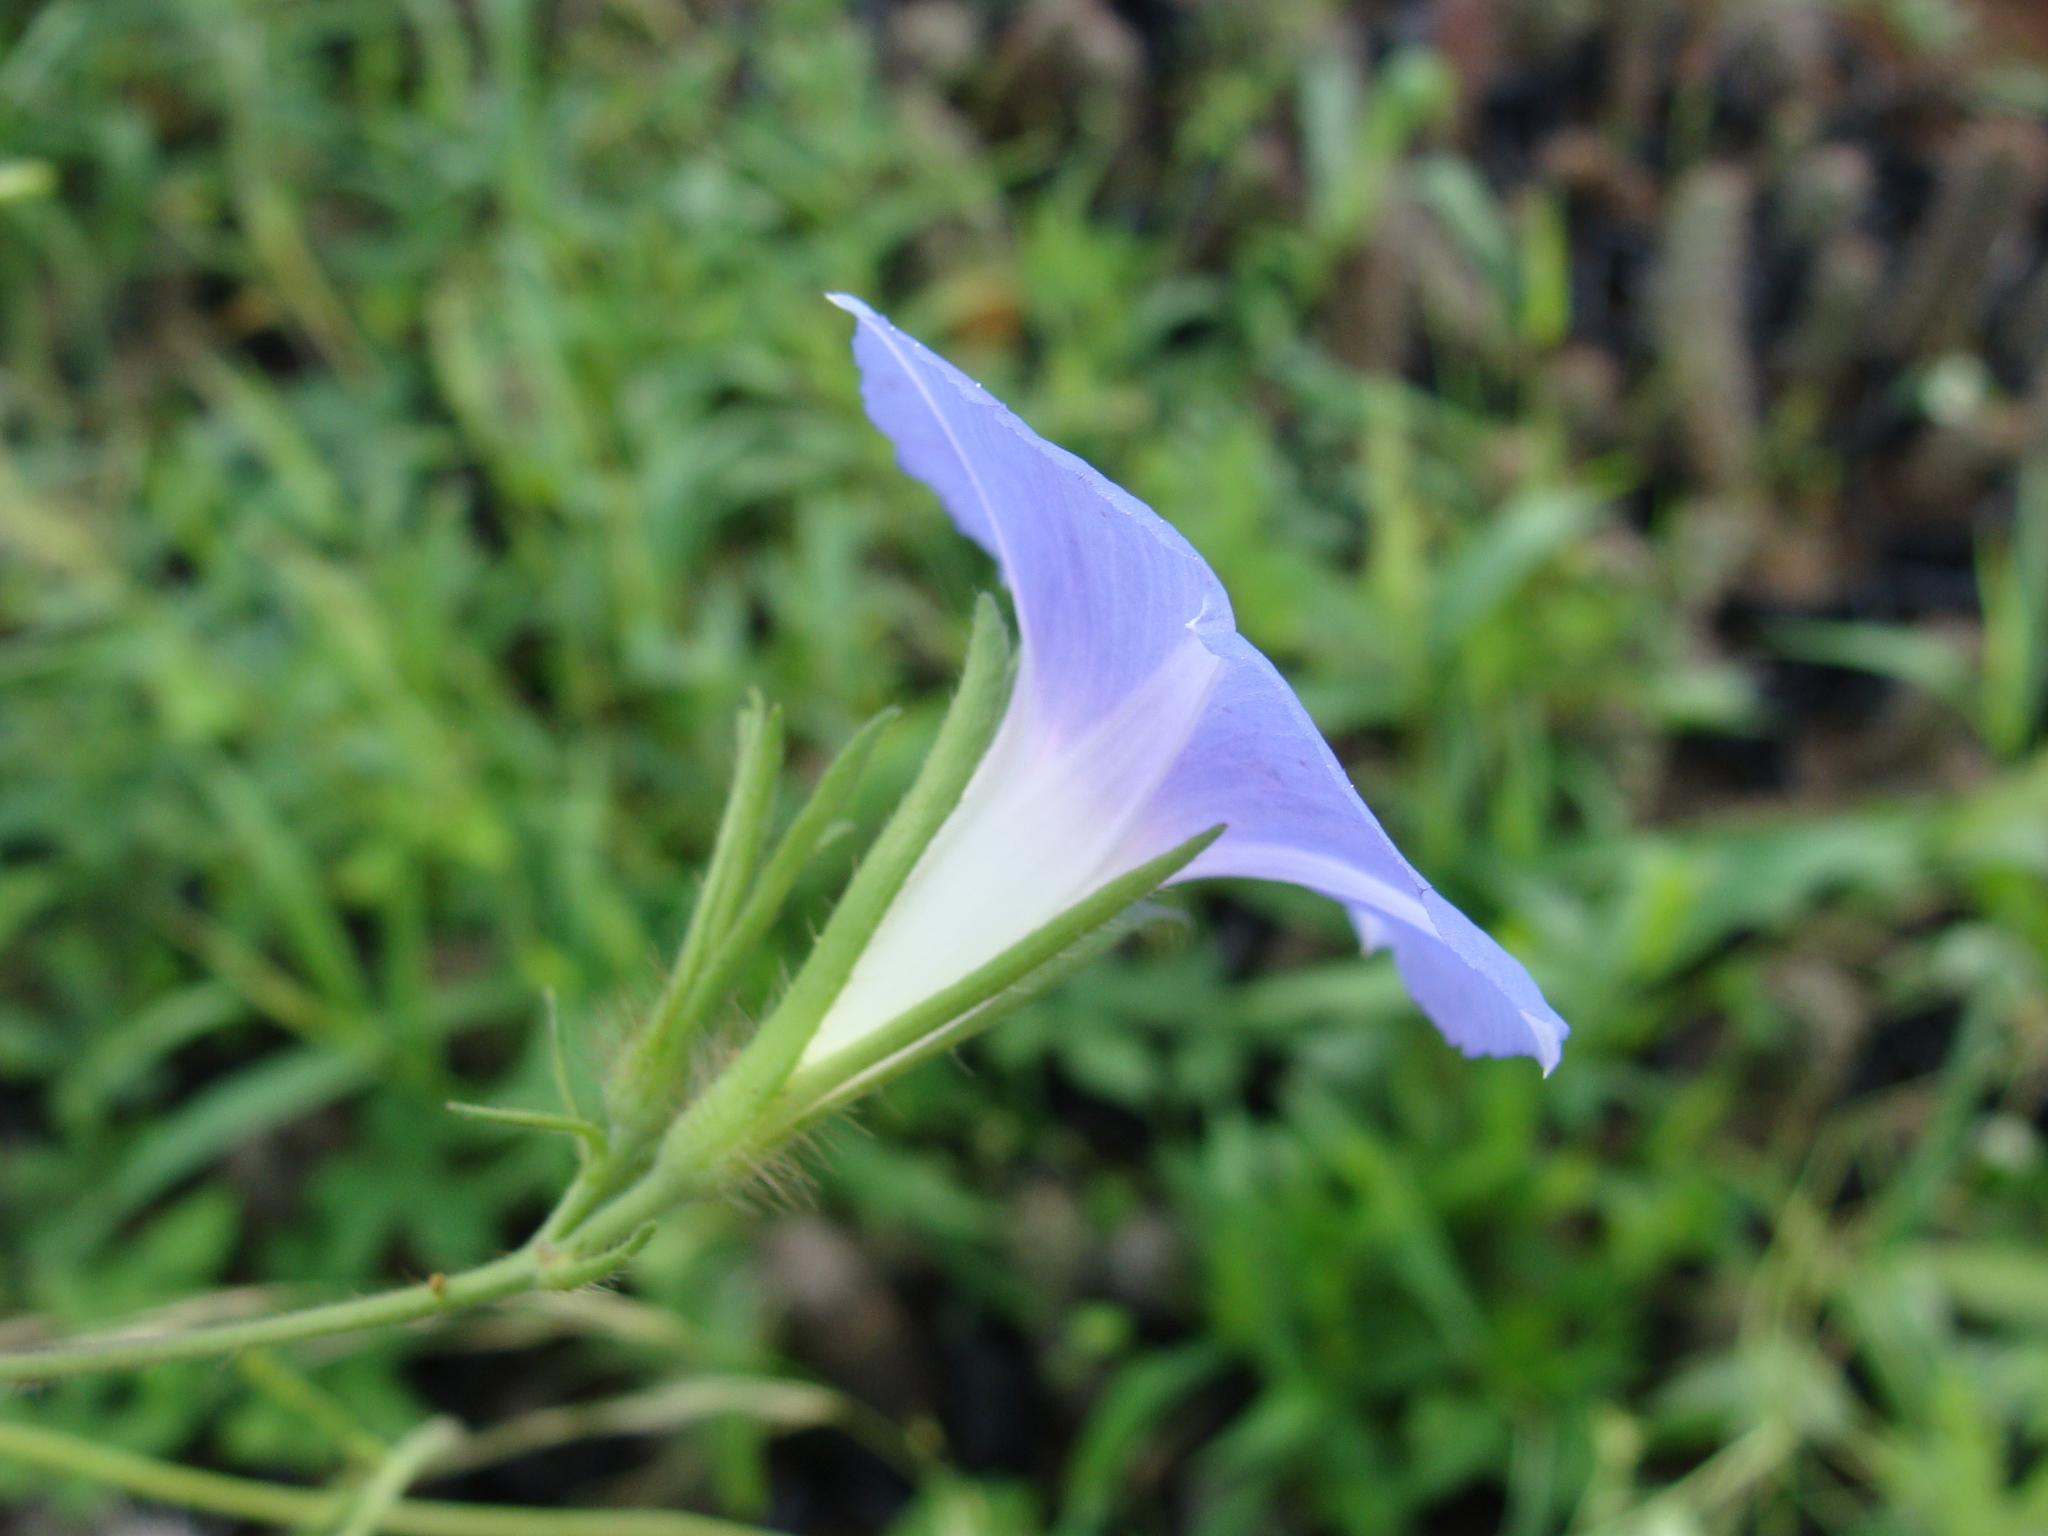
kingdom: Plantae
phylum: Tracheophyta
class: Magnoliopsida
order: Solanales
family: Convolvulaceae
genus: Ipomoea
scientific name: Ipomoea nil
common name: Japanese morning-glory
